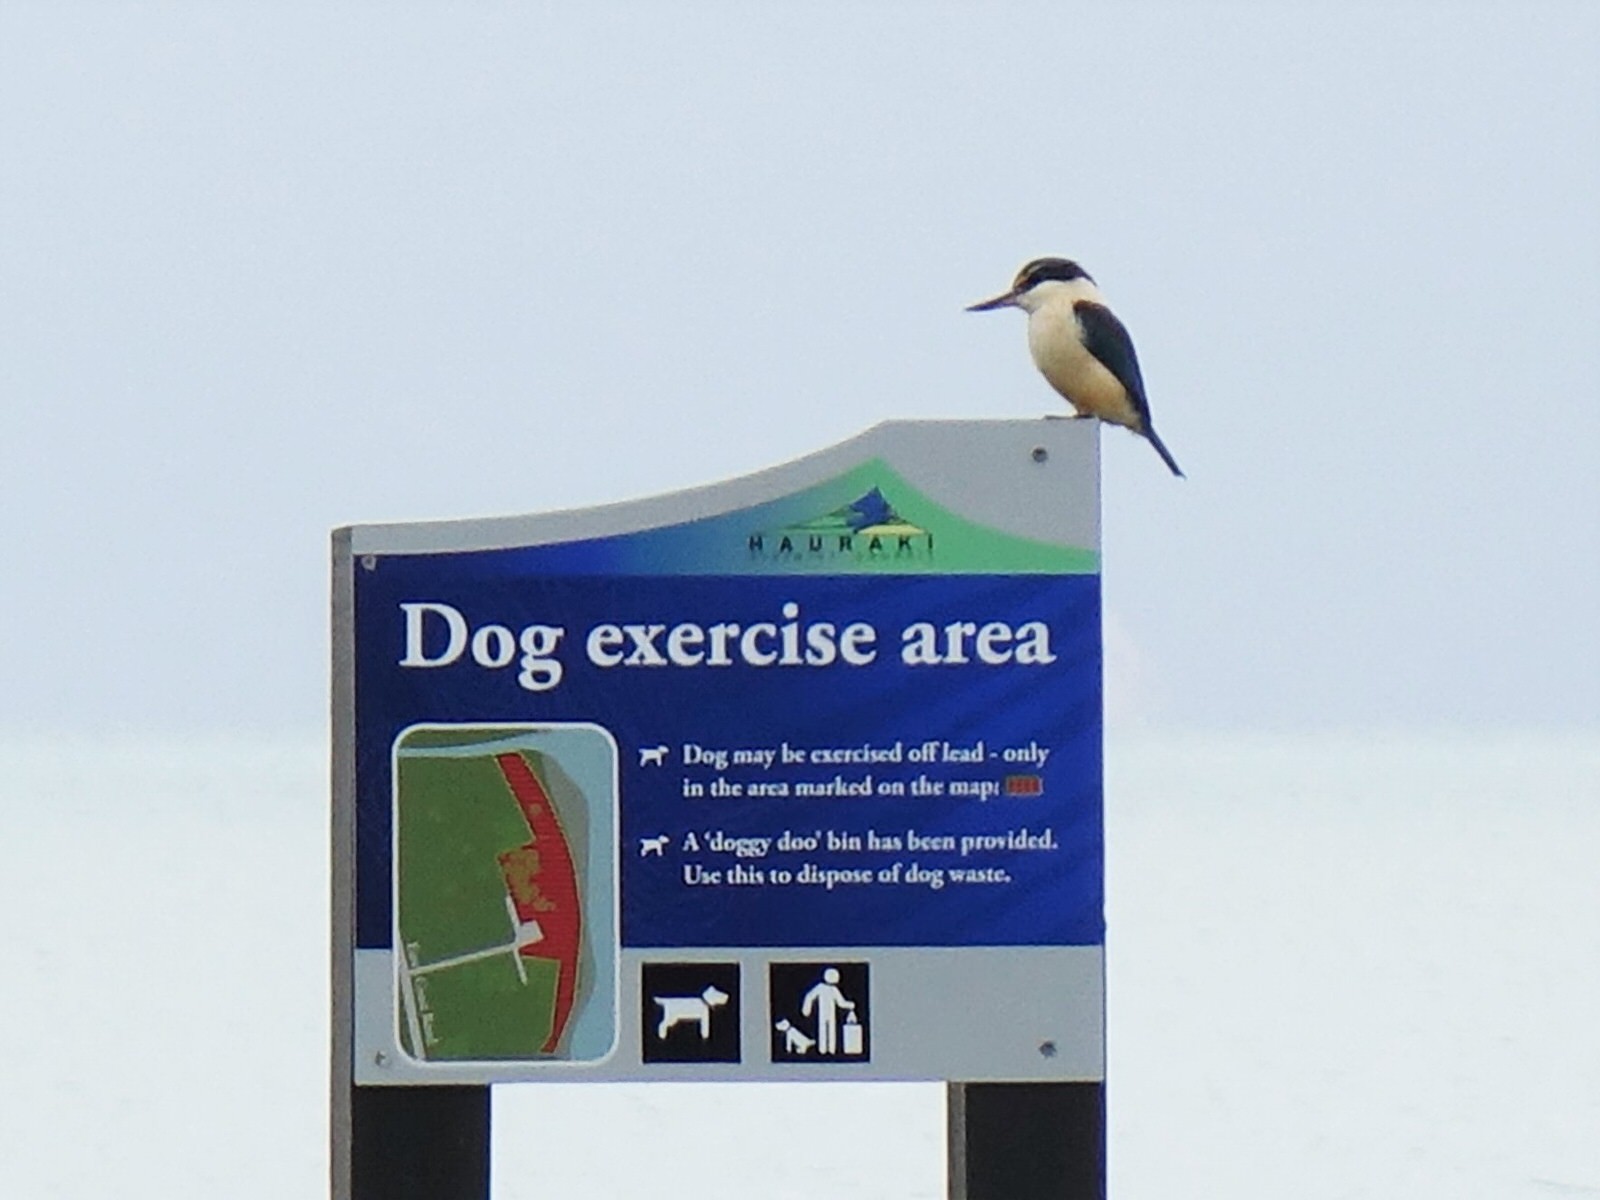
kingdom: Animalia
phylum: Chordata
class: Aves
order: Coraciiformes
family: Alcedinidae
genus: Todiramphus
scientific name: Todiramphus sanctus
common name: Sacred kingfisher
